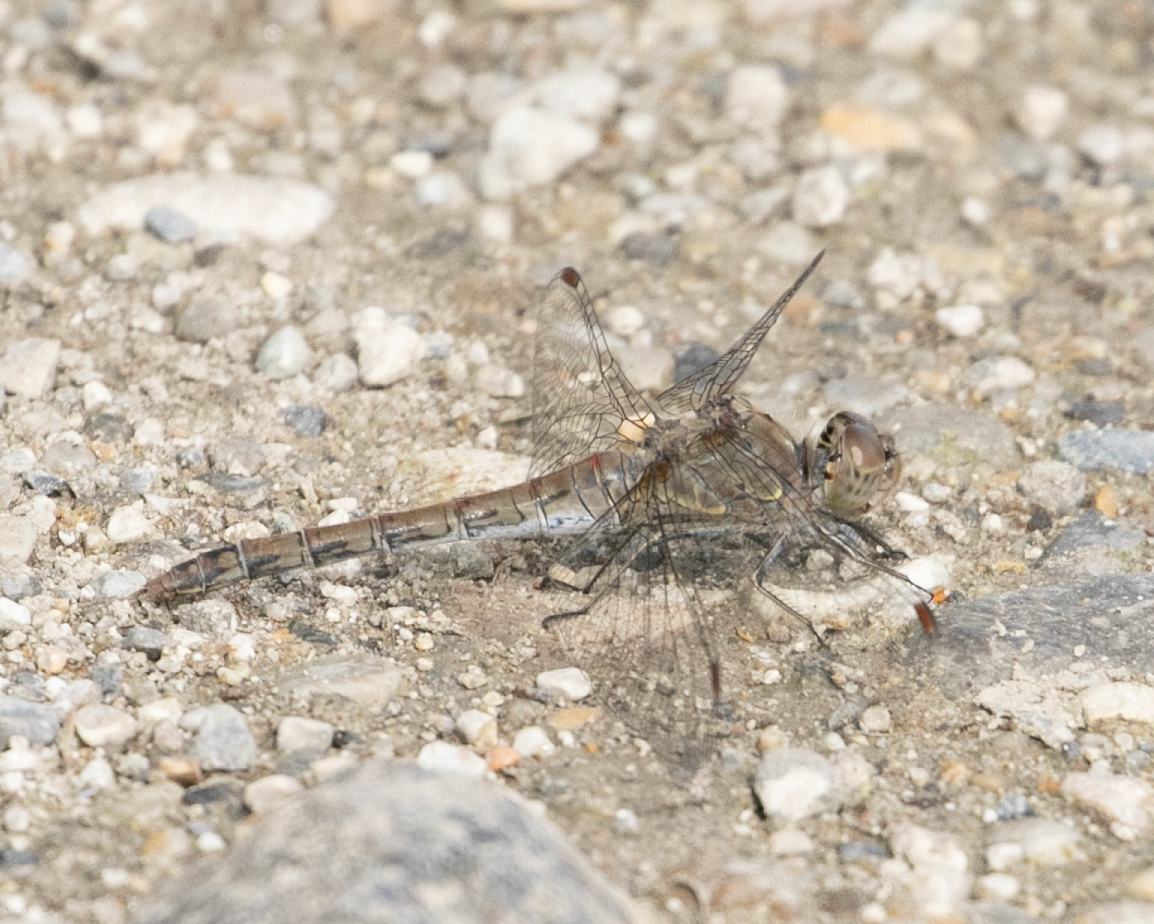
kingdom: Animalia
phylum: Arthropoda
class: Insecta
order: Odonata
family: Libellulidae
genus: Sympetrum
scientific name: Sympetrum striolatum
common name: Common darter
